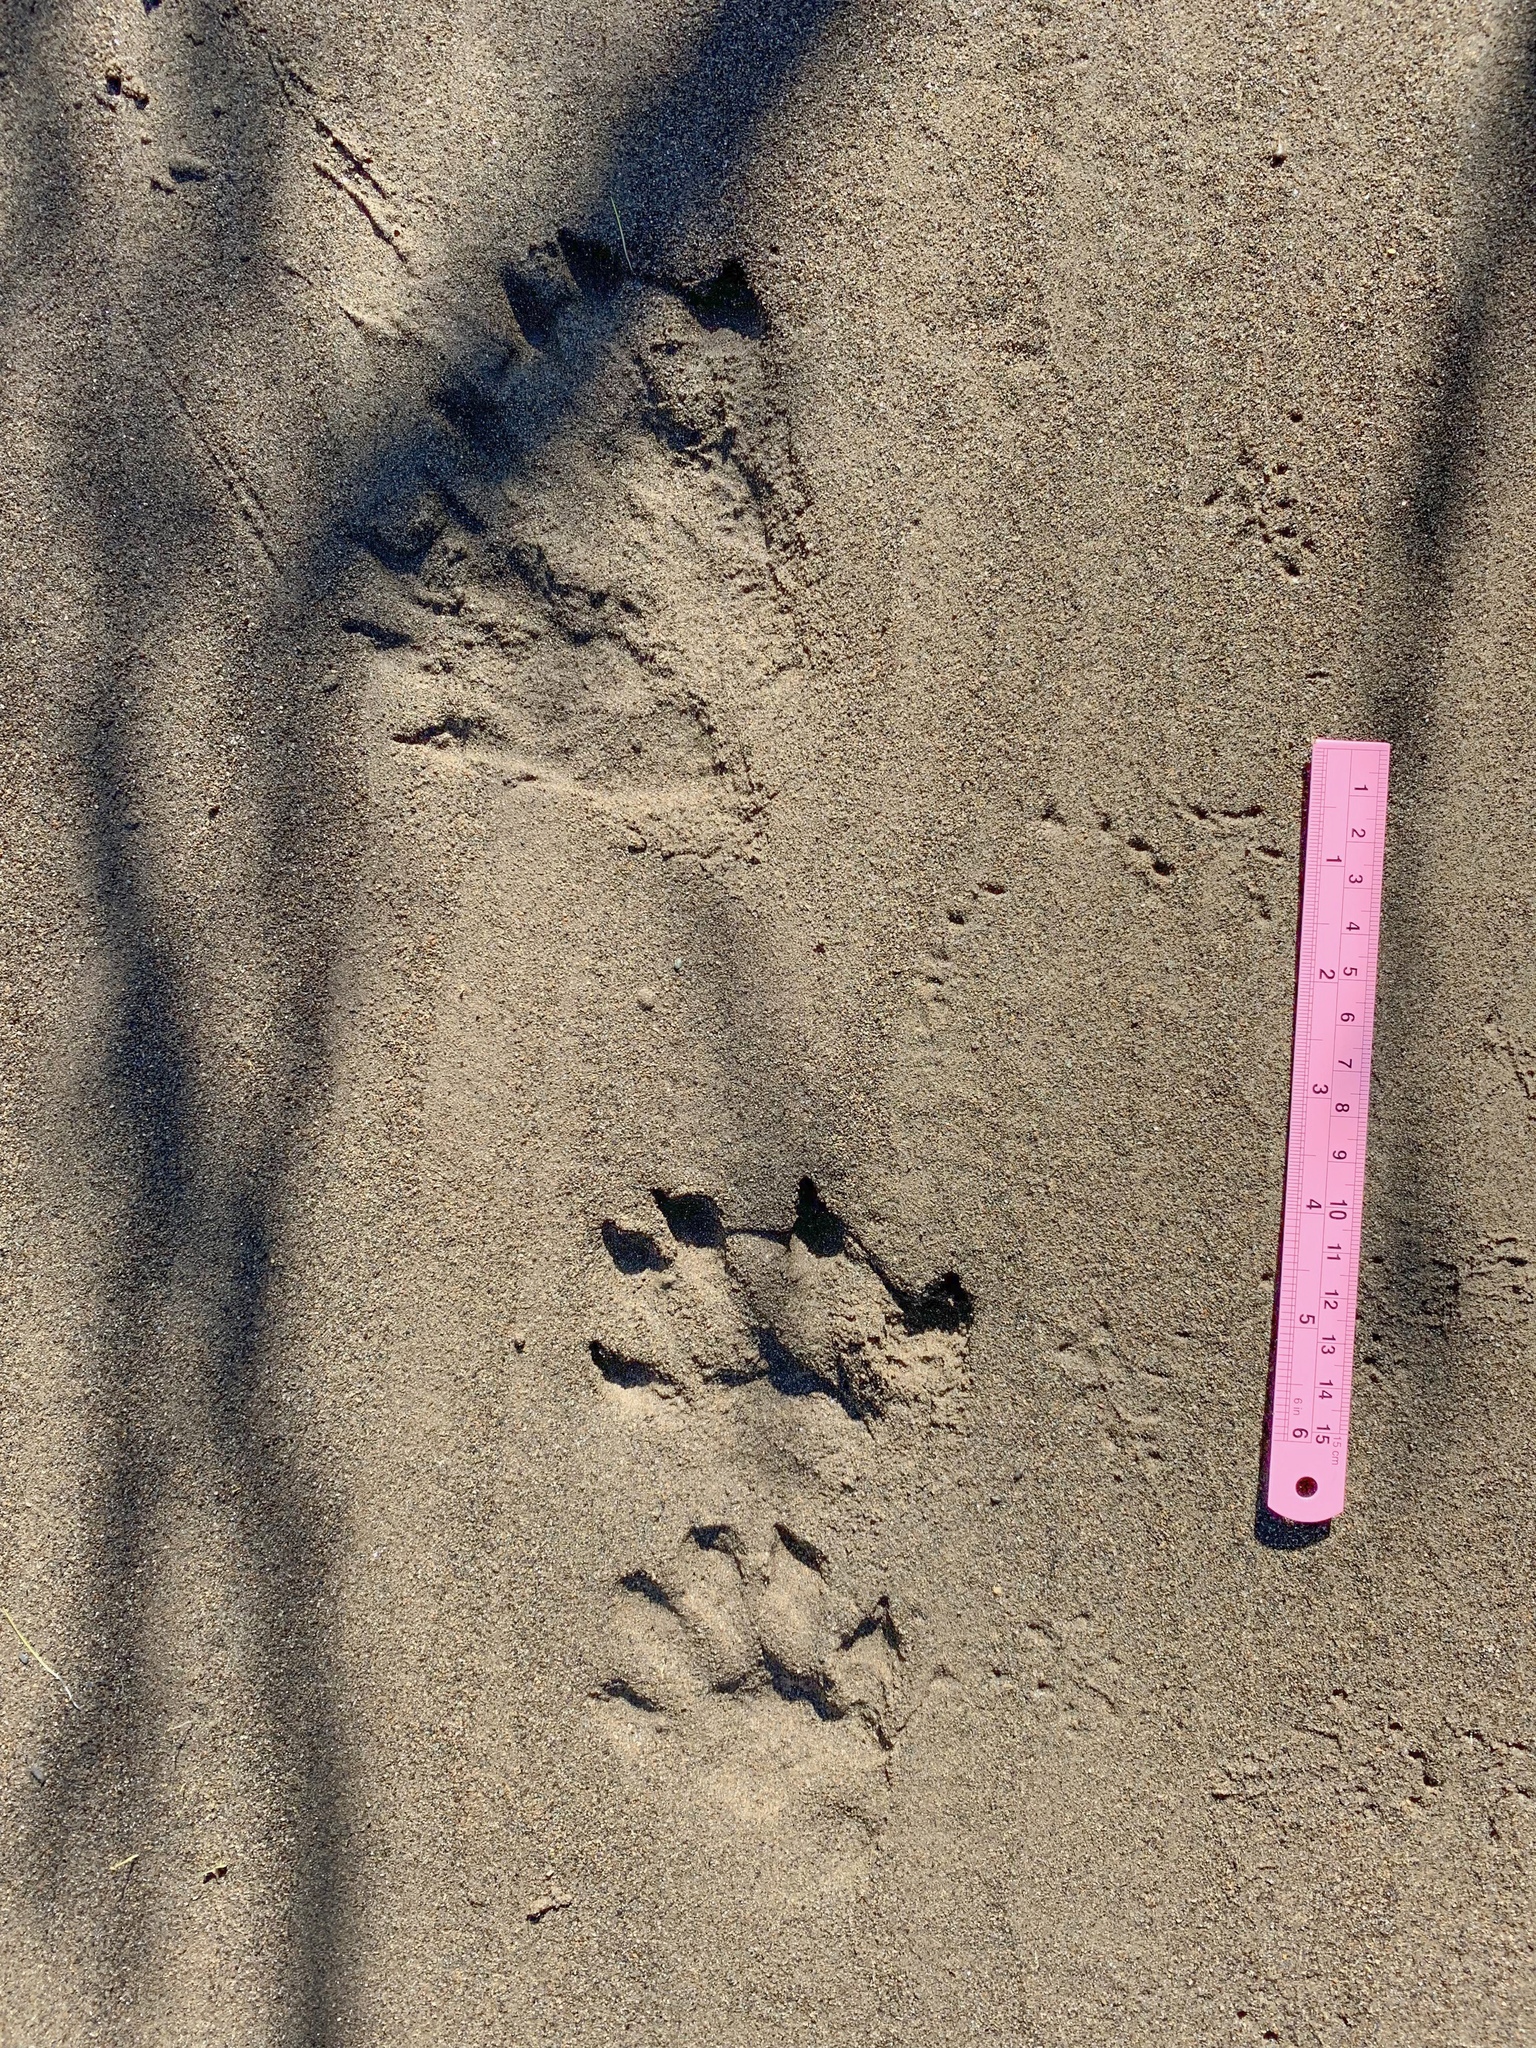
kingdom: Animalia
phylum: Chordata
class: Mammalia
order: Carnivora
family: Mustelidae
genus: Lontra
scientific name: Lontra canadensis
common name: North american river otter
